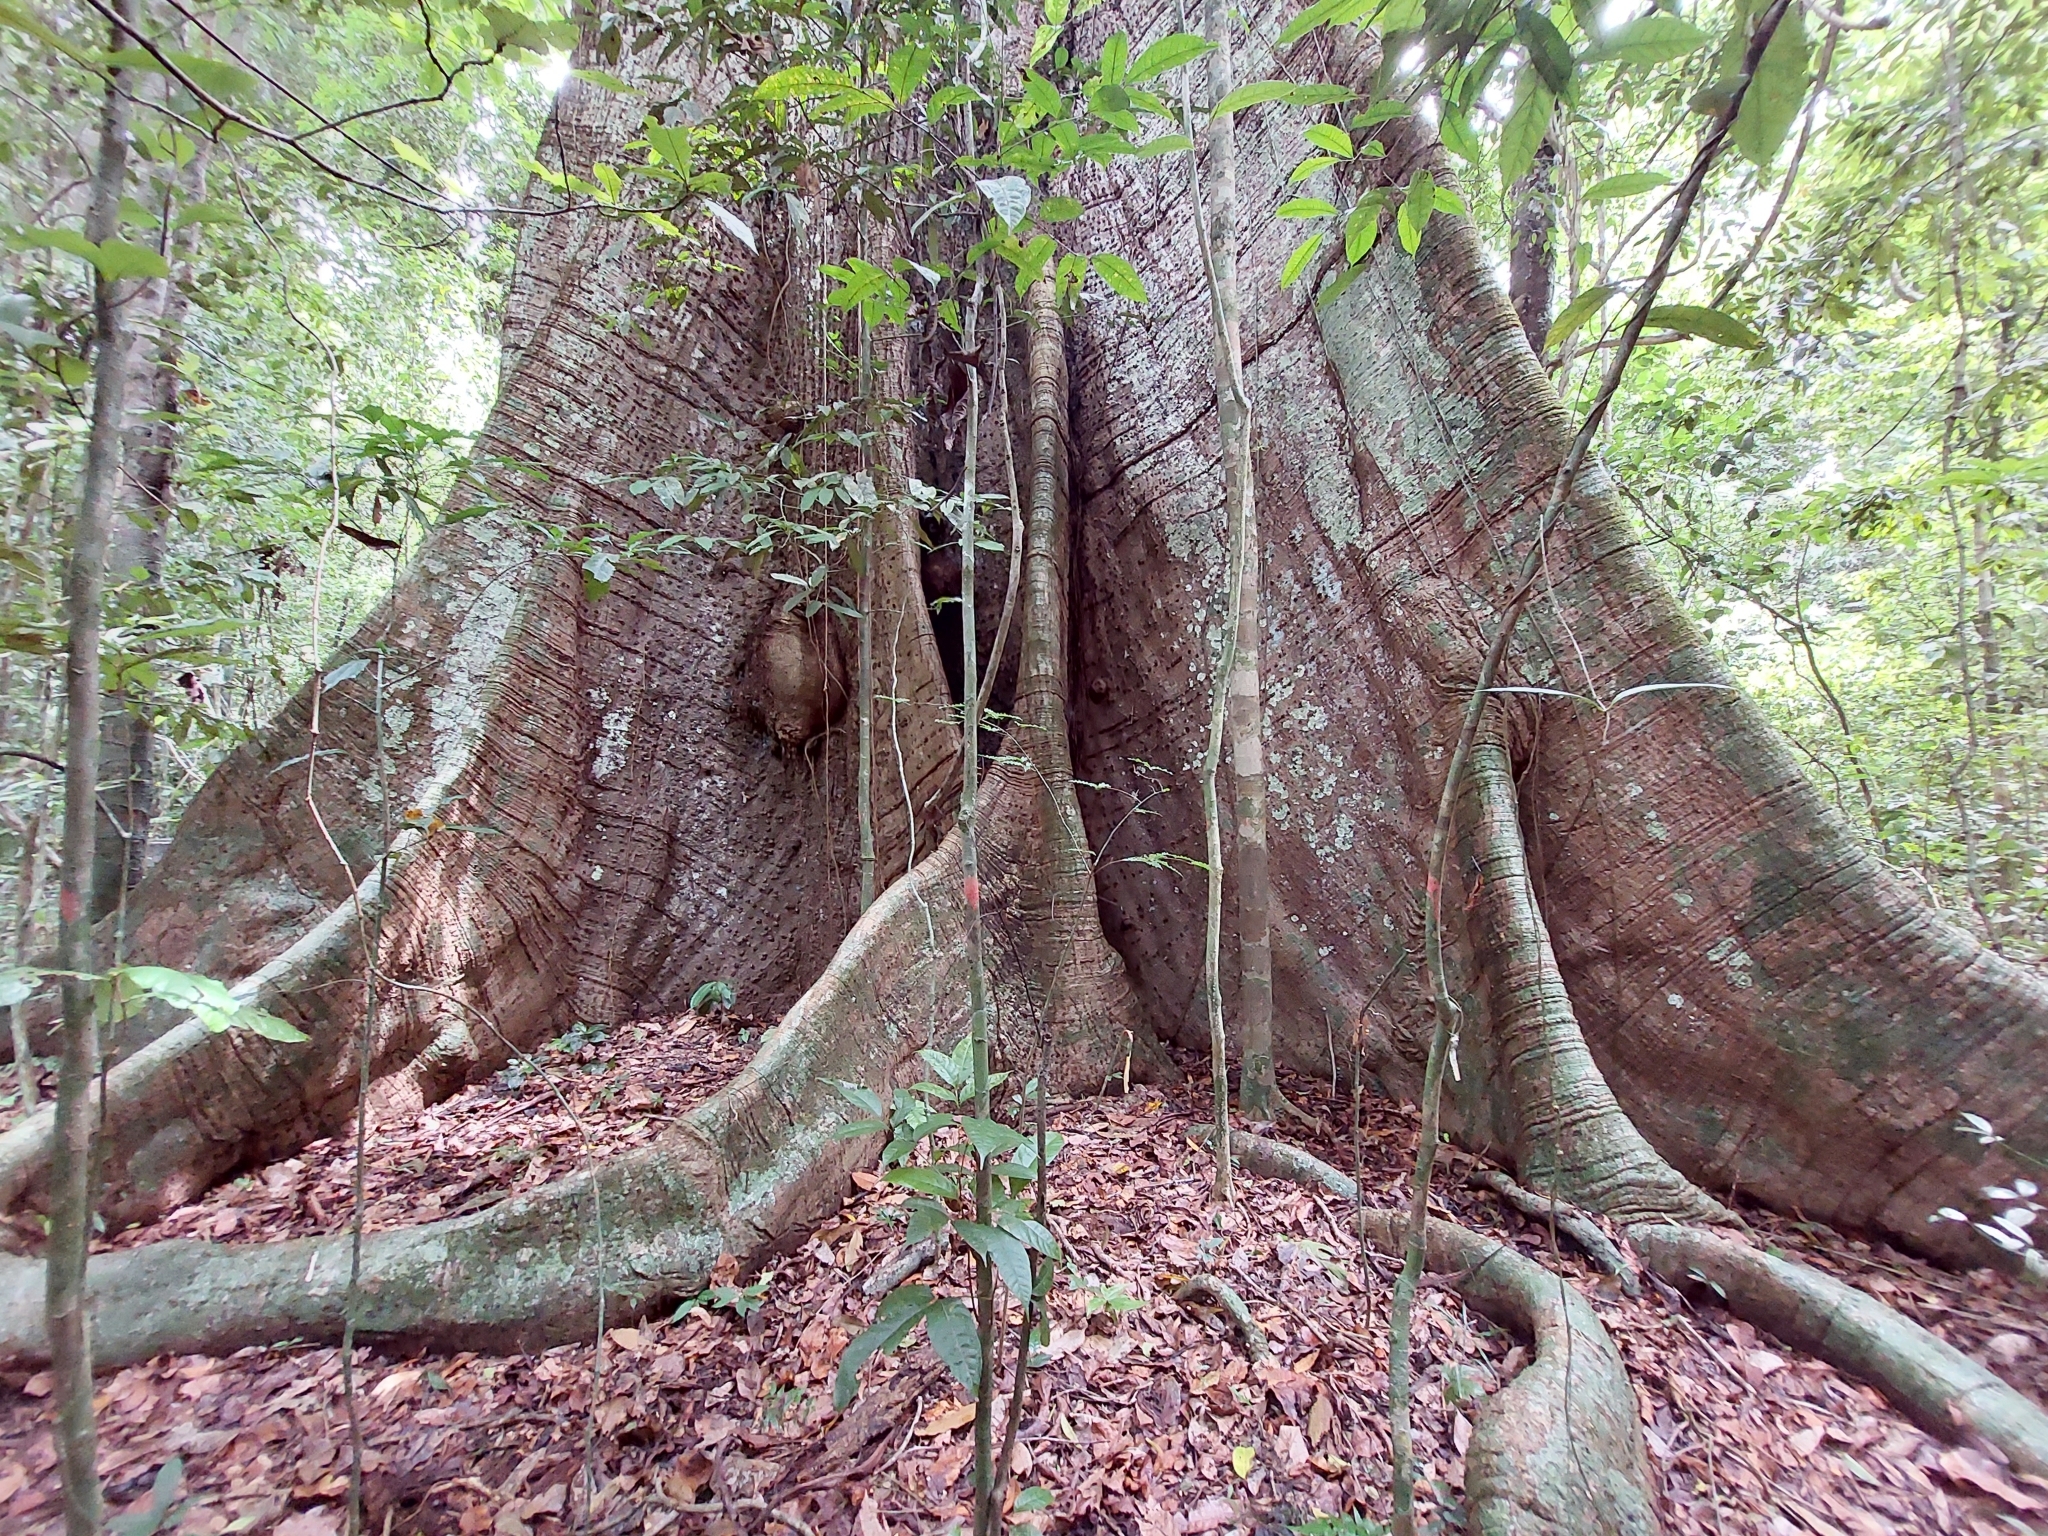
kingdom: Plantae
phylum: Tracheophyta
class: Magnoliopsida
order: Malvales
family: Malvaceae
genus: Ceiba
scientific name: Ceiba pentandra
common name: Kapok
